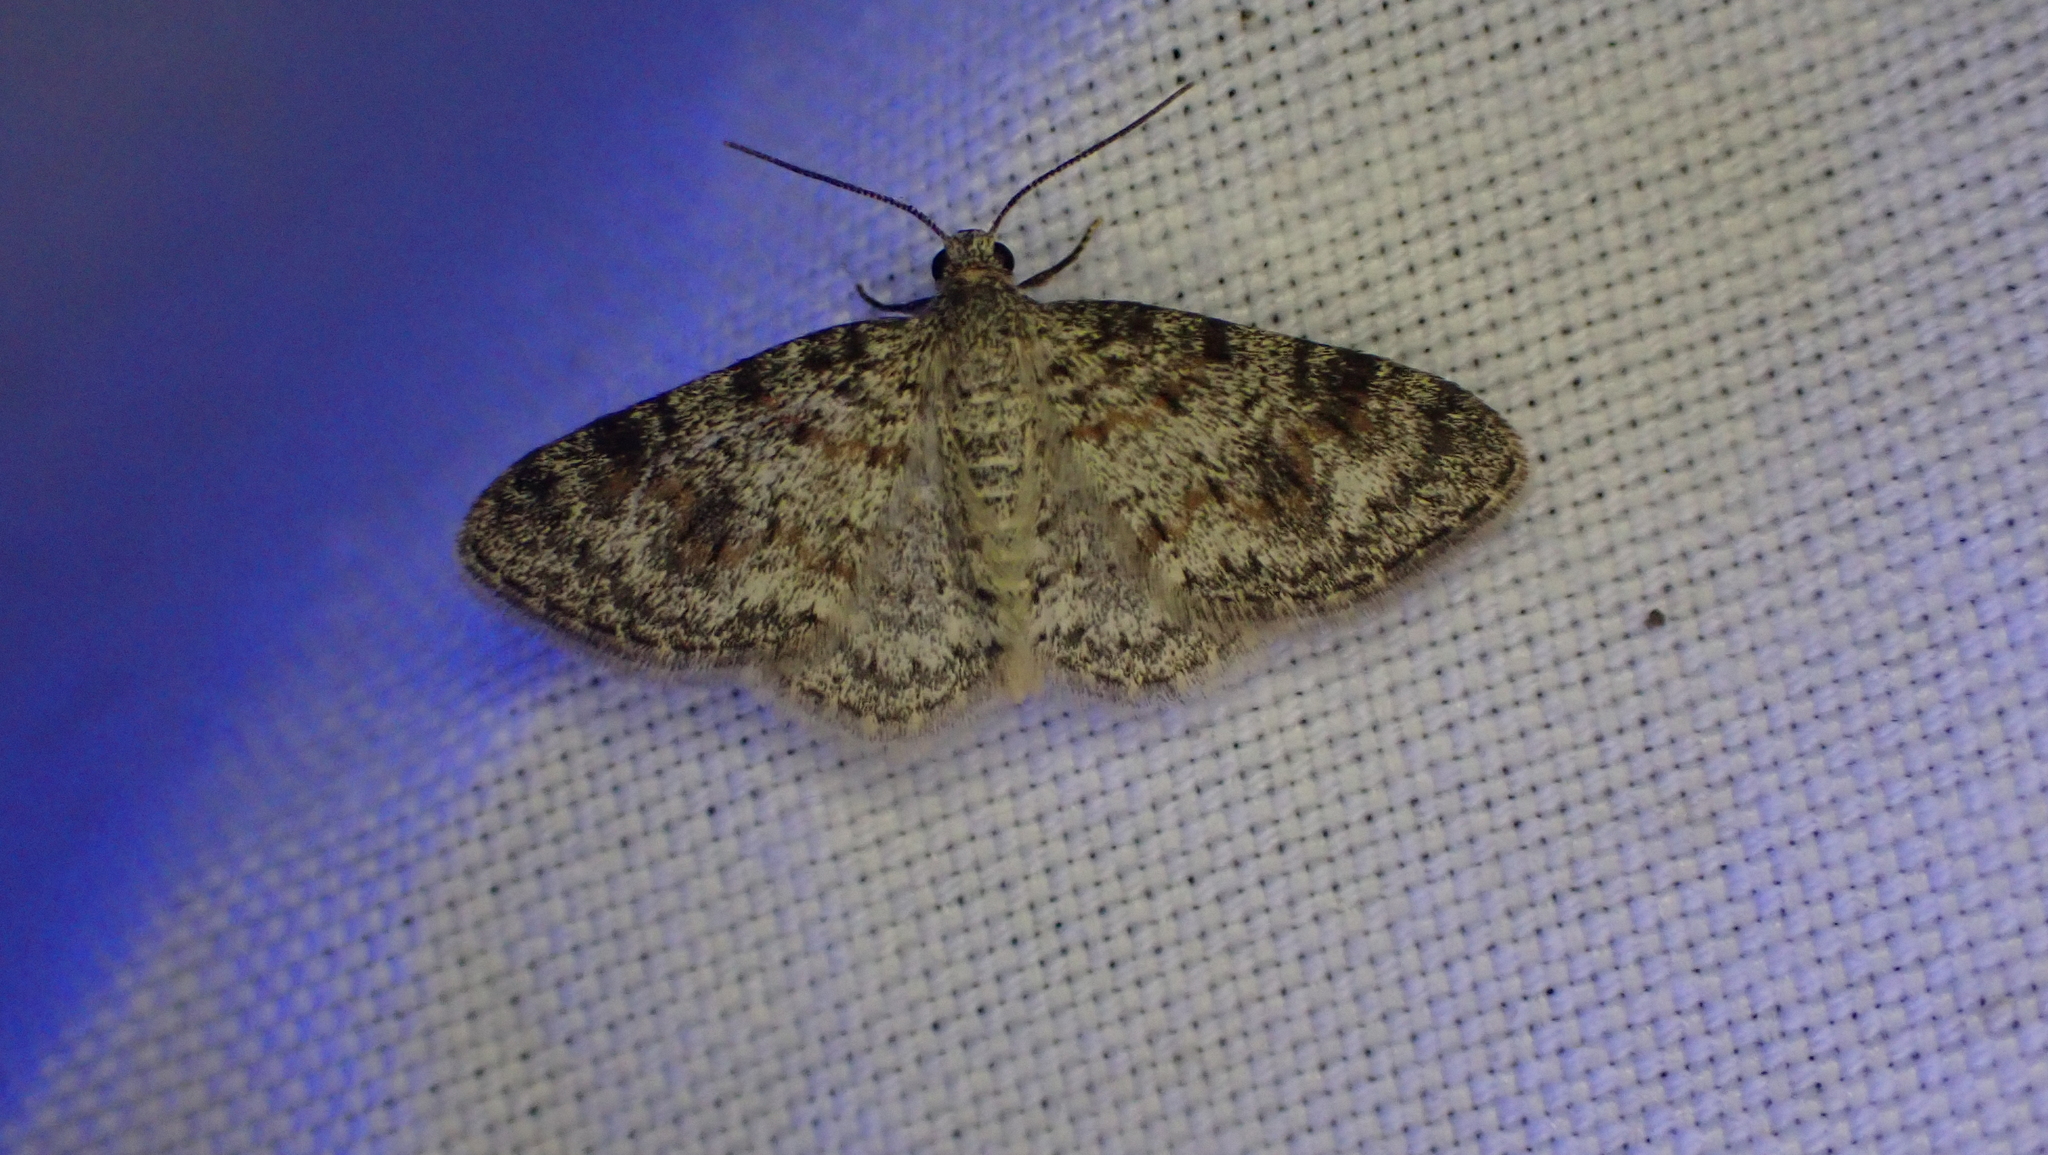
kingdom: Animalia
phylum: Arthropoda
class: Insecta
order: Lepidoptera
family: Geometridae
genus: Hydrelia
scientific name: Hydrelia inornata
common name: Unadorned carpet moth
